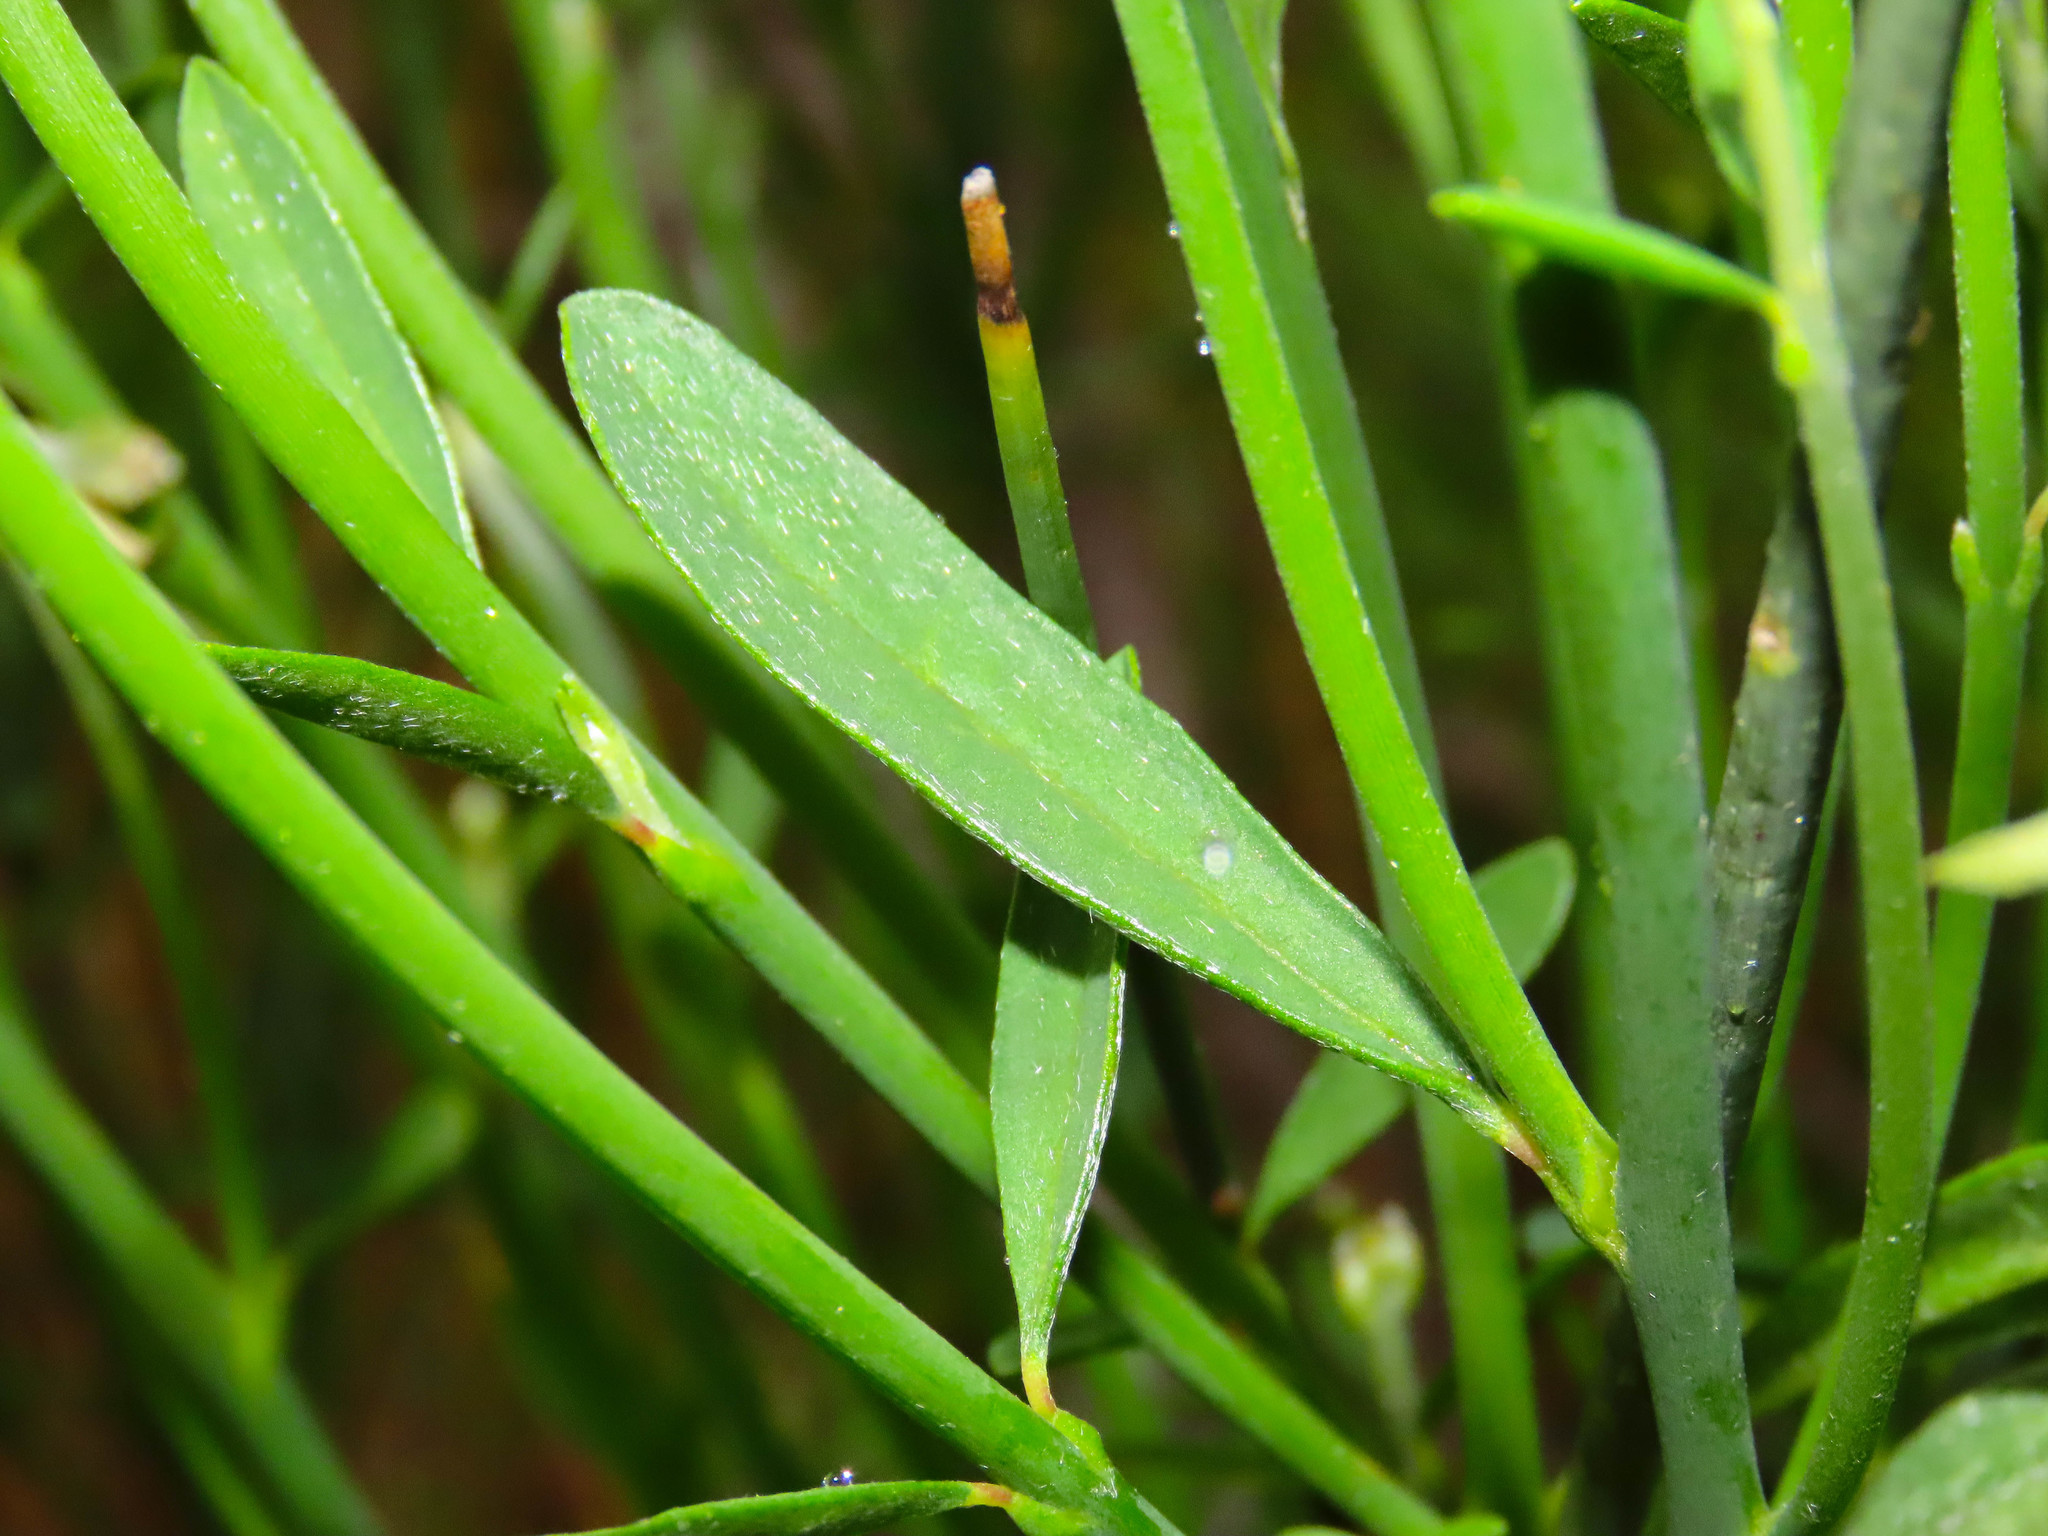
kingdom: Plantae
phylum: Tracheophyta
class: Magnoliopsida
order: Fabales
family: Fabaceae
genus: Spartium
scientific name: Spartium junceum
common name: Spanish broom
